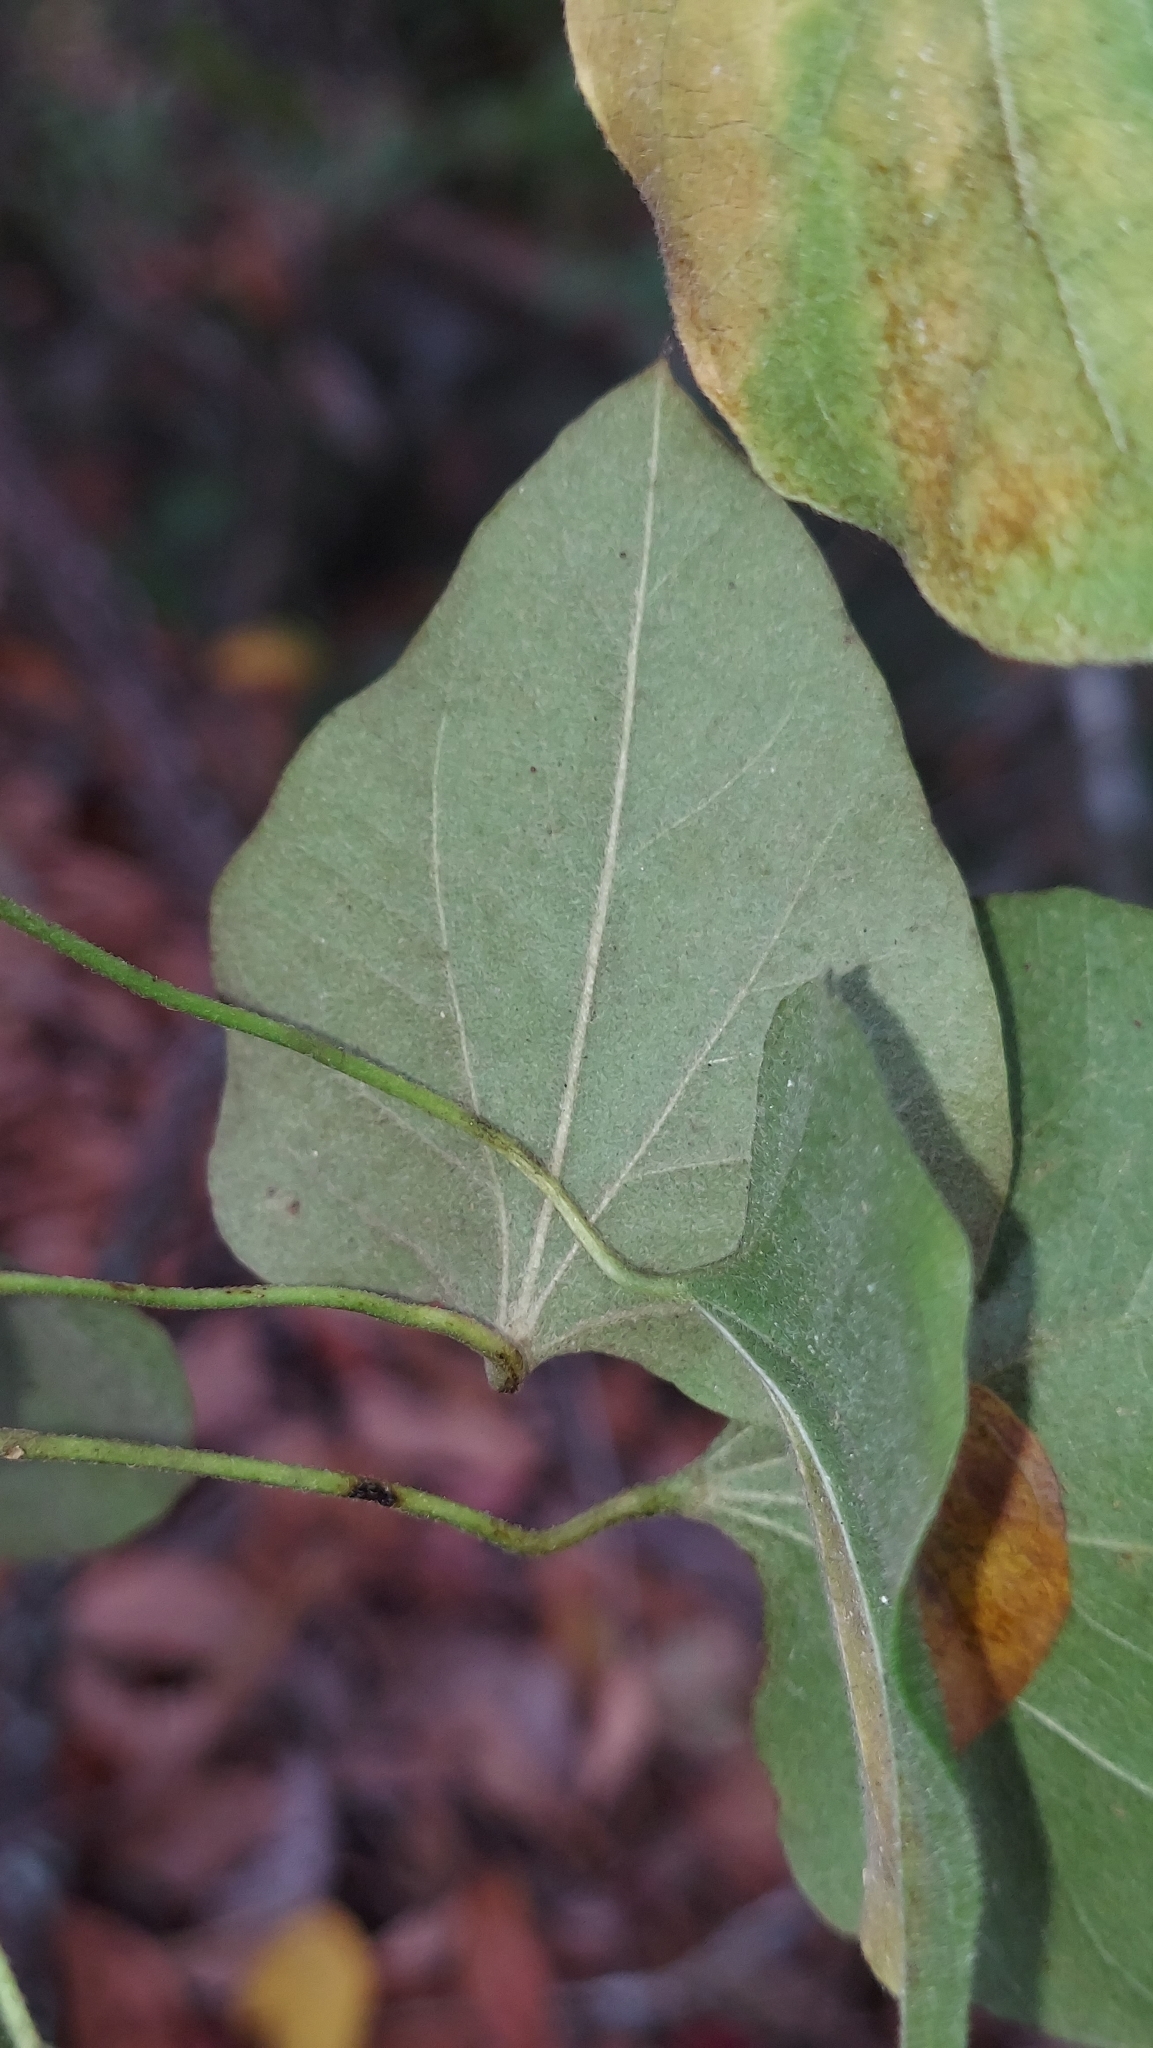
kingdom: Plantae
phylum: Tracheophyta
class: Magnoliopsida
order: Ranunculales
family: Menispermaceae
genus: Cocculus
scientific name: Cocculus carolinus
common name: Carolina moonseed
